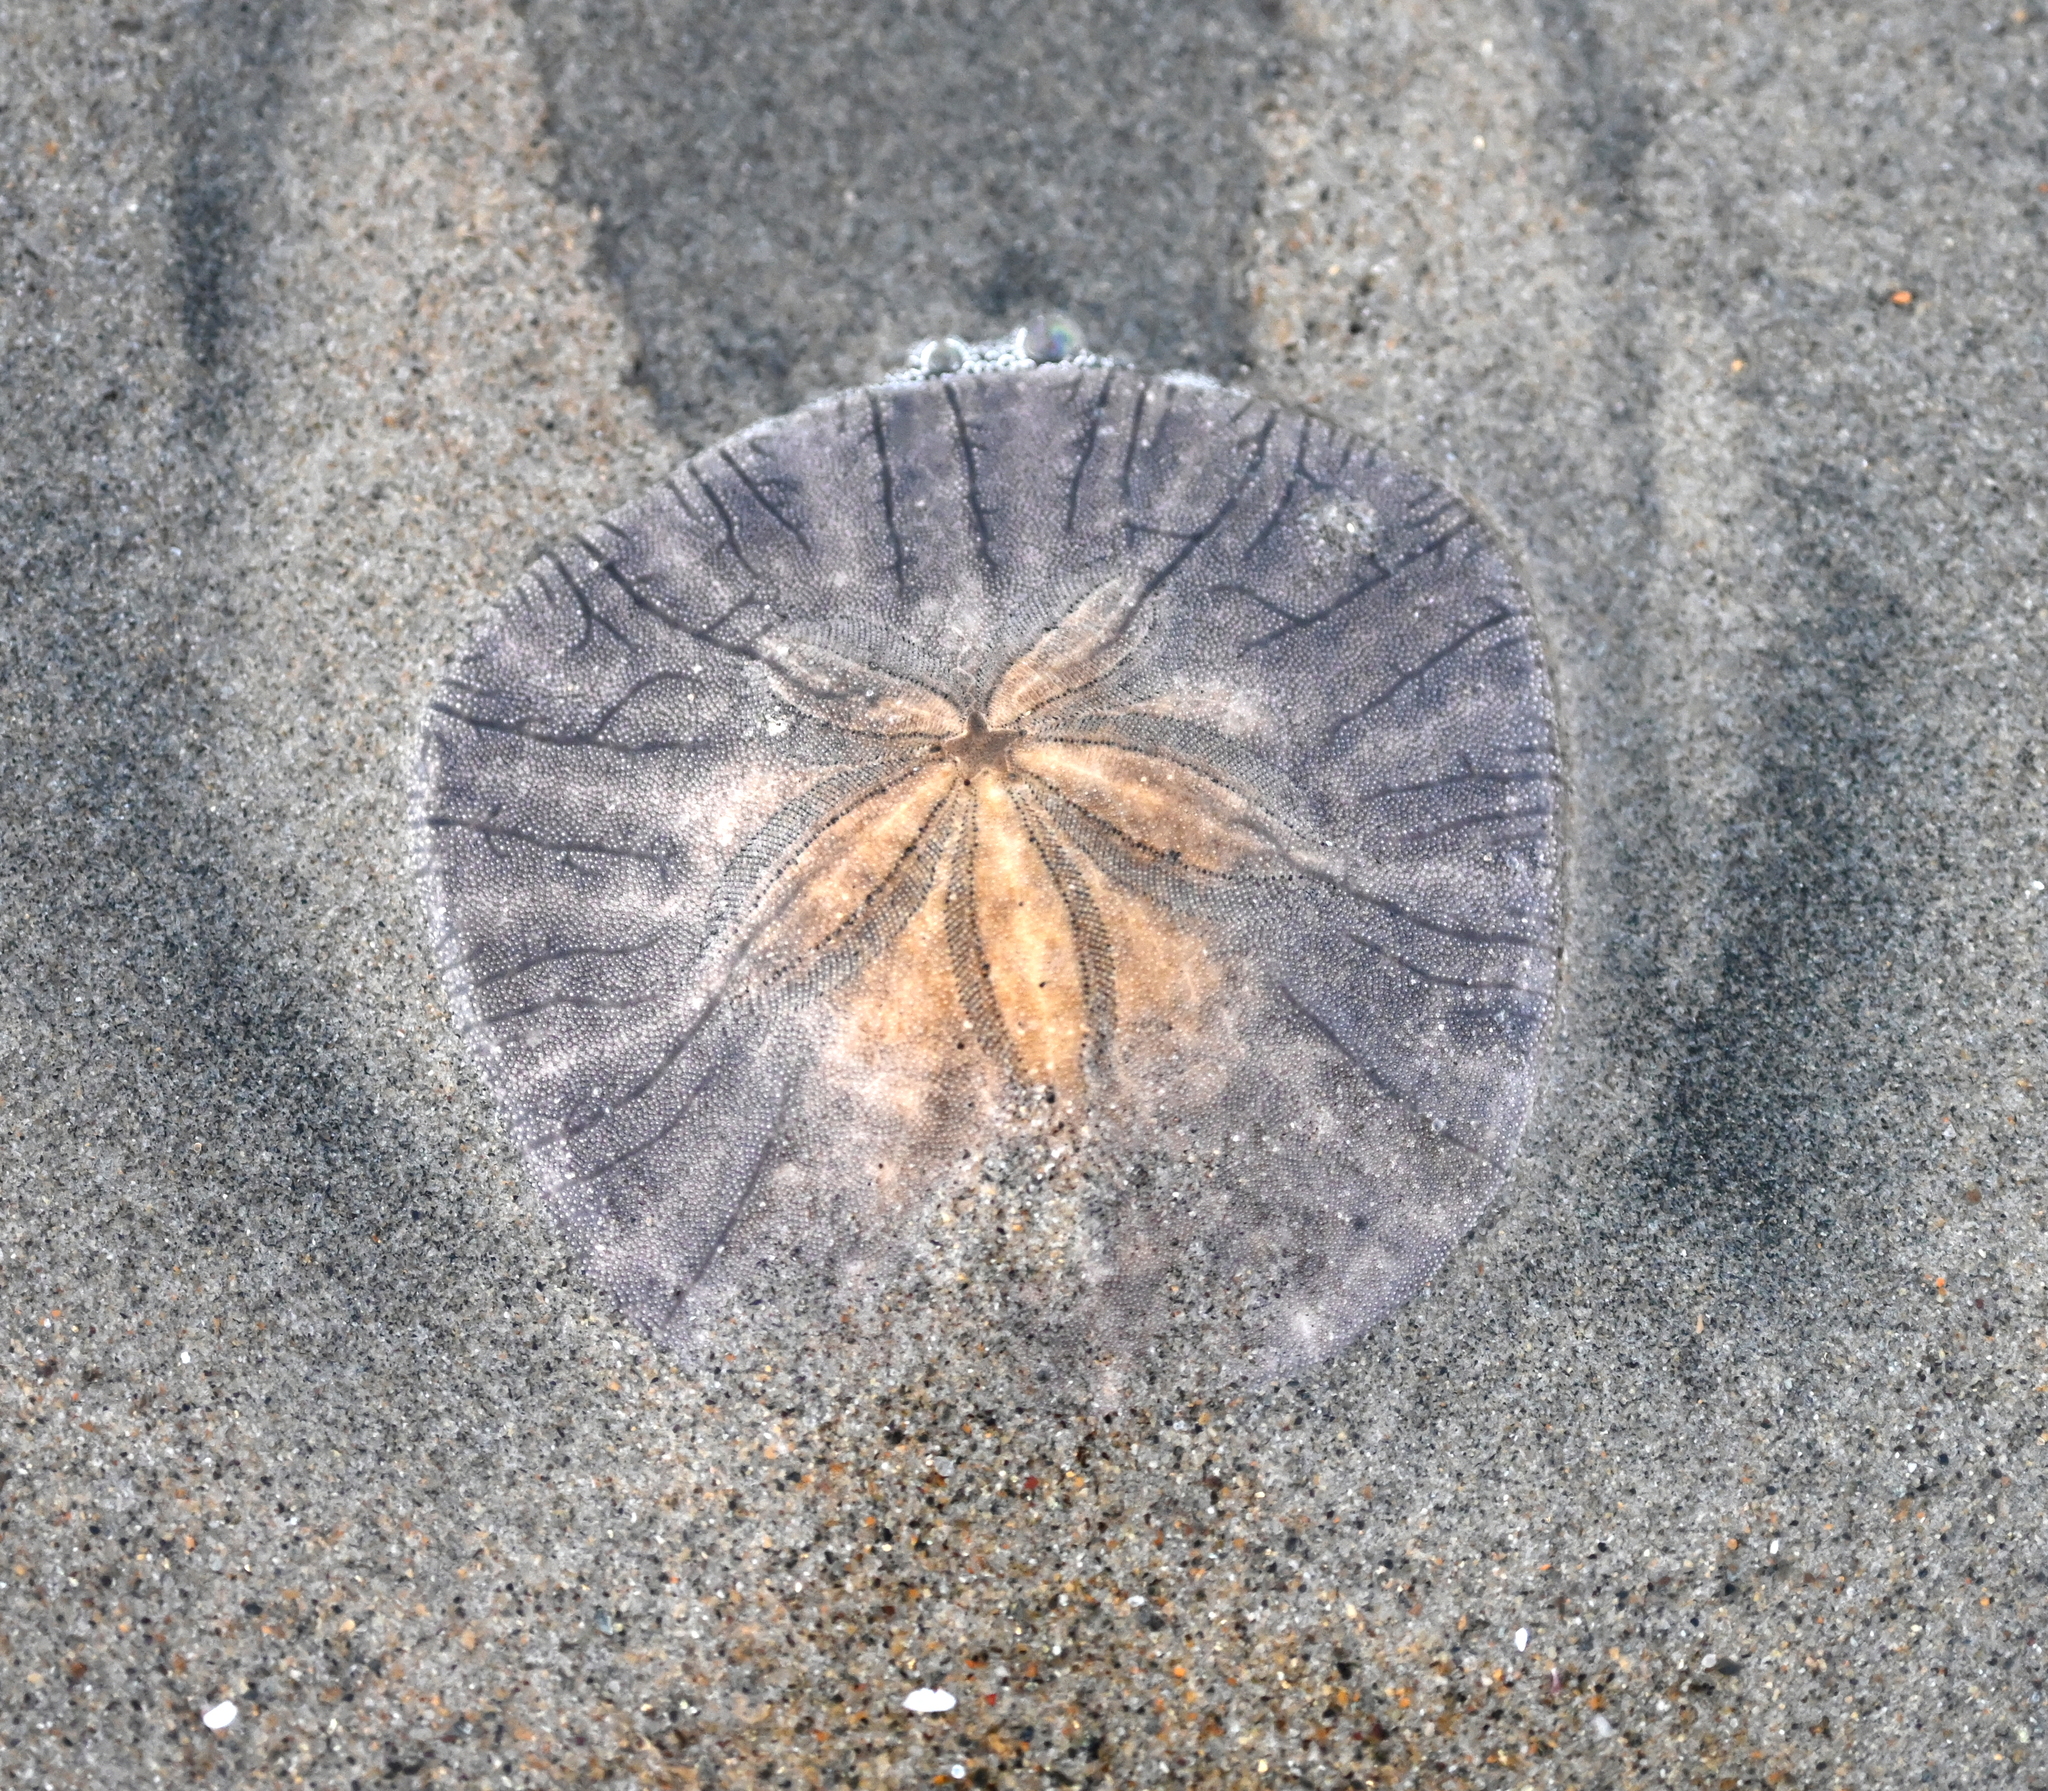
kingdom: Animalia
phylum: Echinodermata
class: Echinoidea
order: Echinolampadacea
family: Dendrasteridae
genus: Dendraster
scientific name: Dendraster excentricus
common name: Eccentric sand dollar sea urchin
